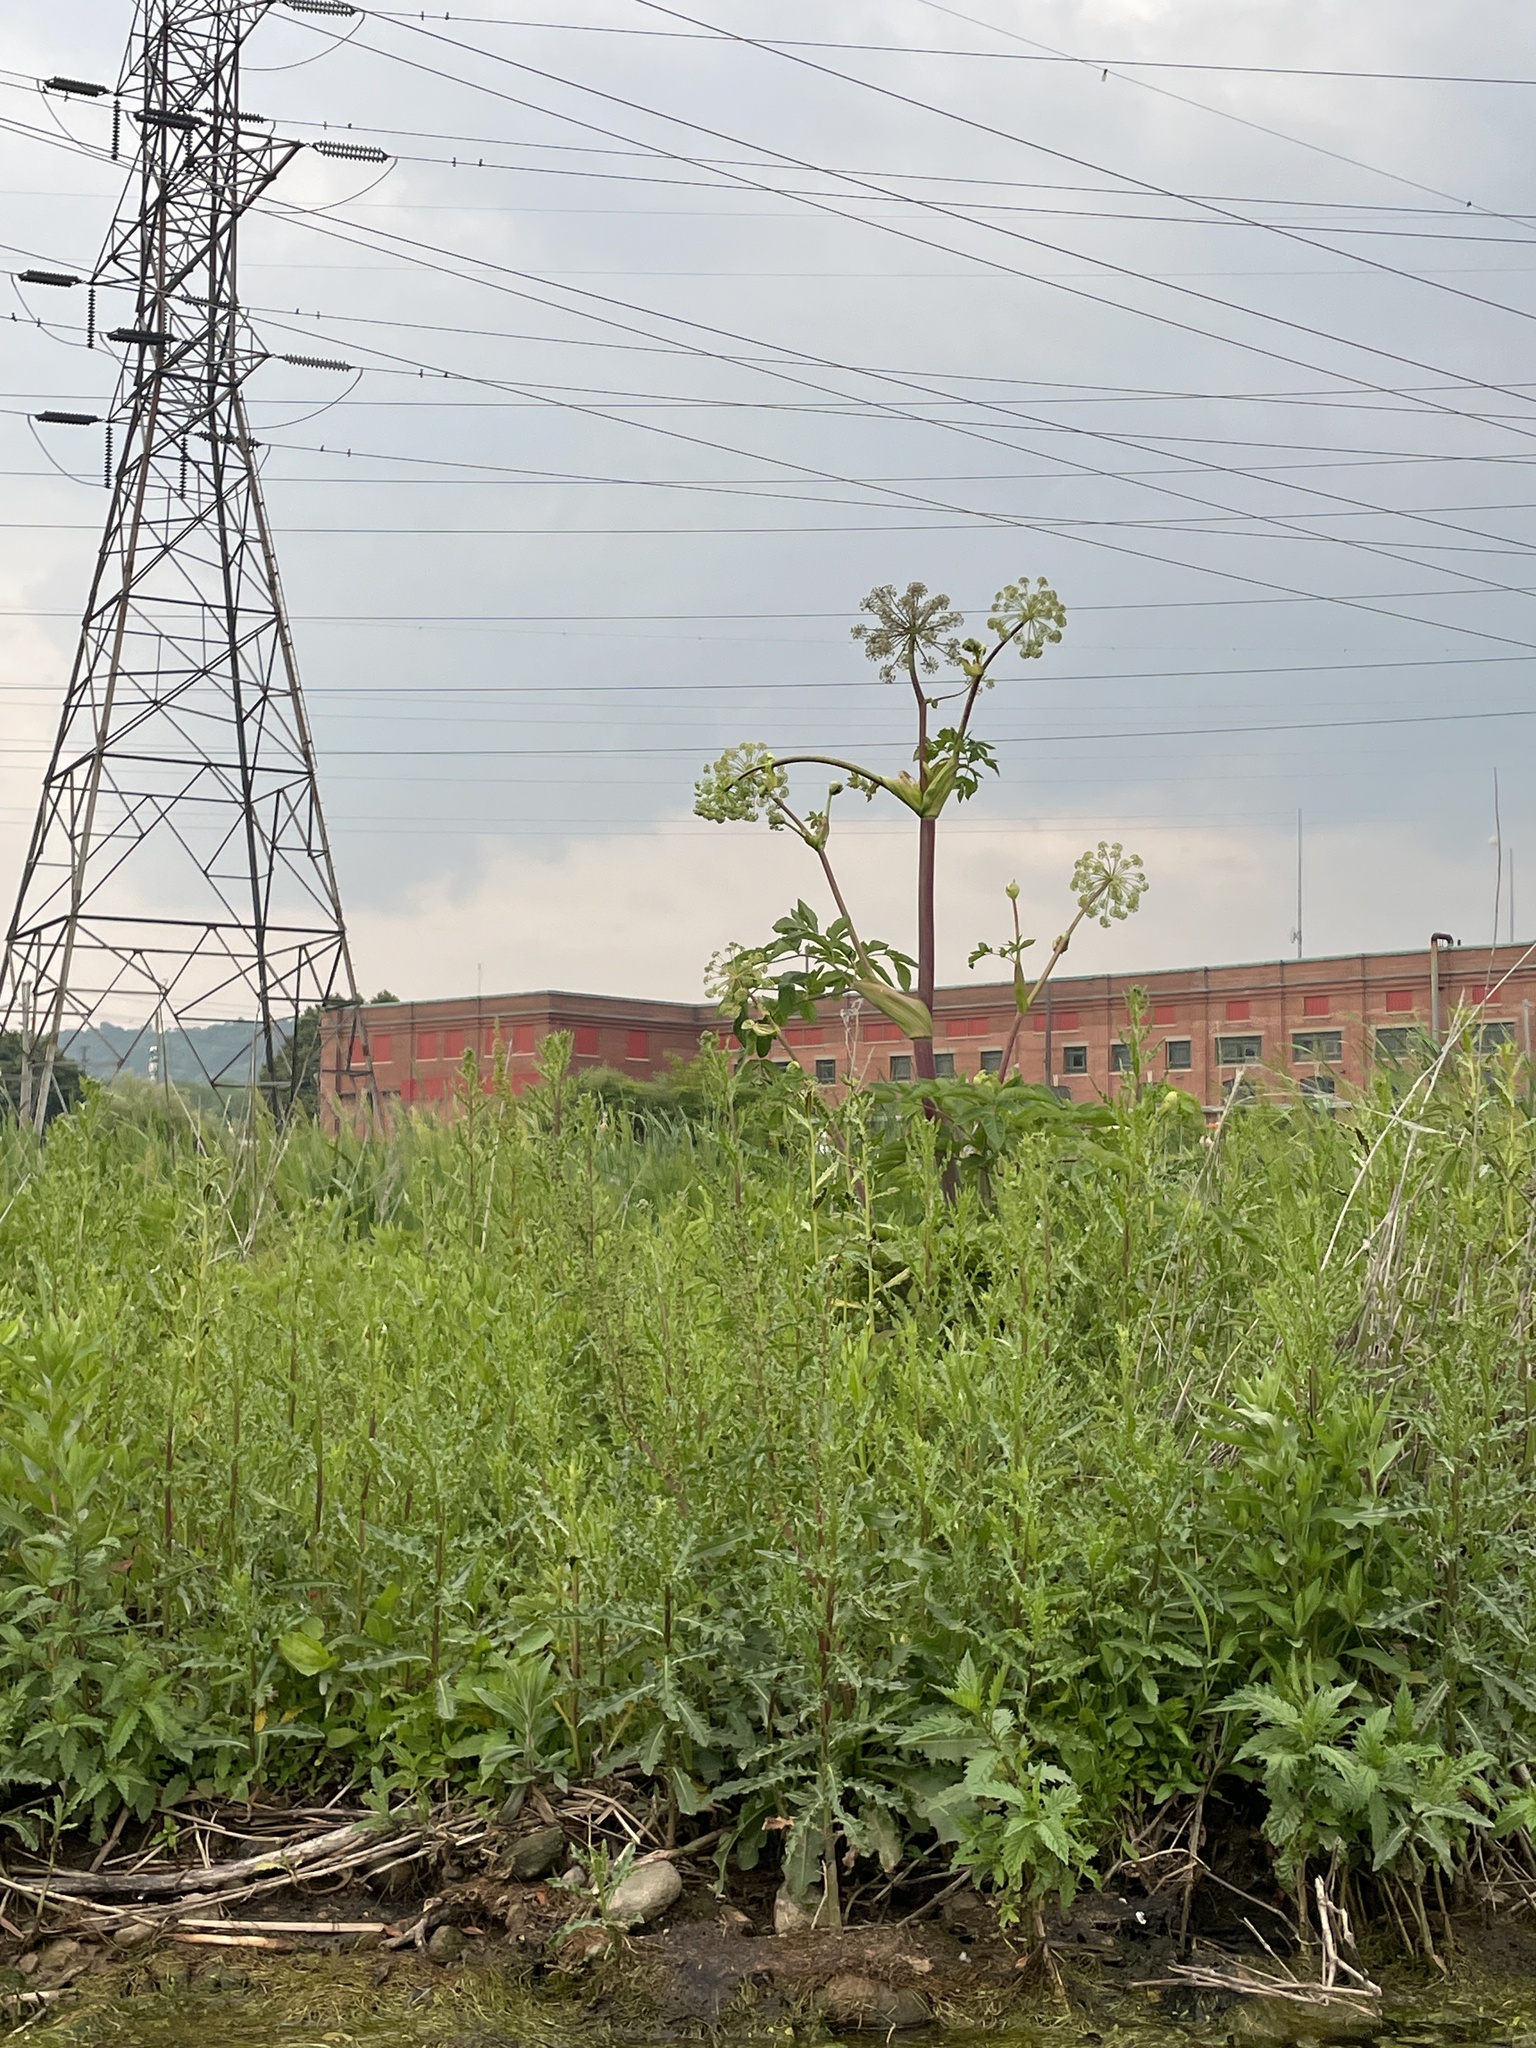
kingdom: Plantae
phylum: Tracheophyta
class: Magnoliopsida
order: Apiales
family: Apiaceae
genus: Angelica
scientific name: Angelica atropurpurea
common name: Great angelica
